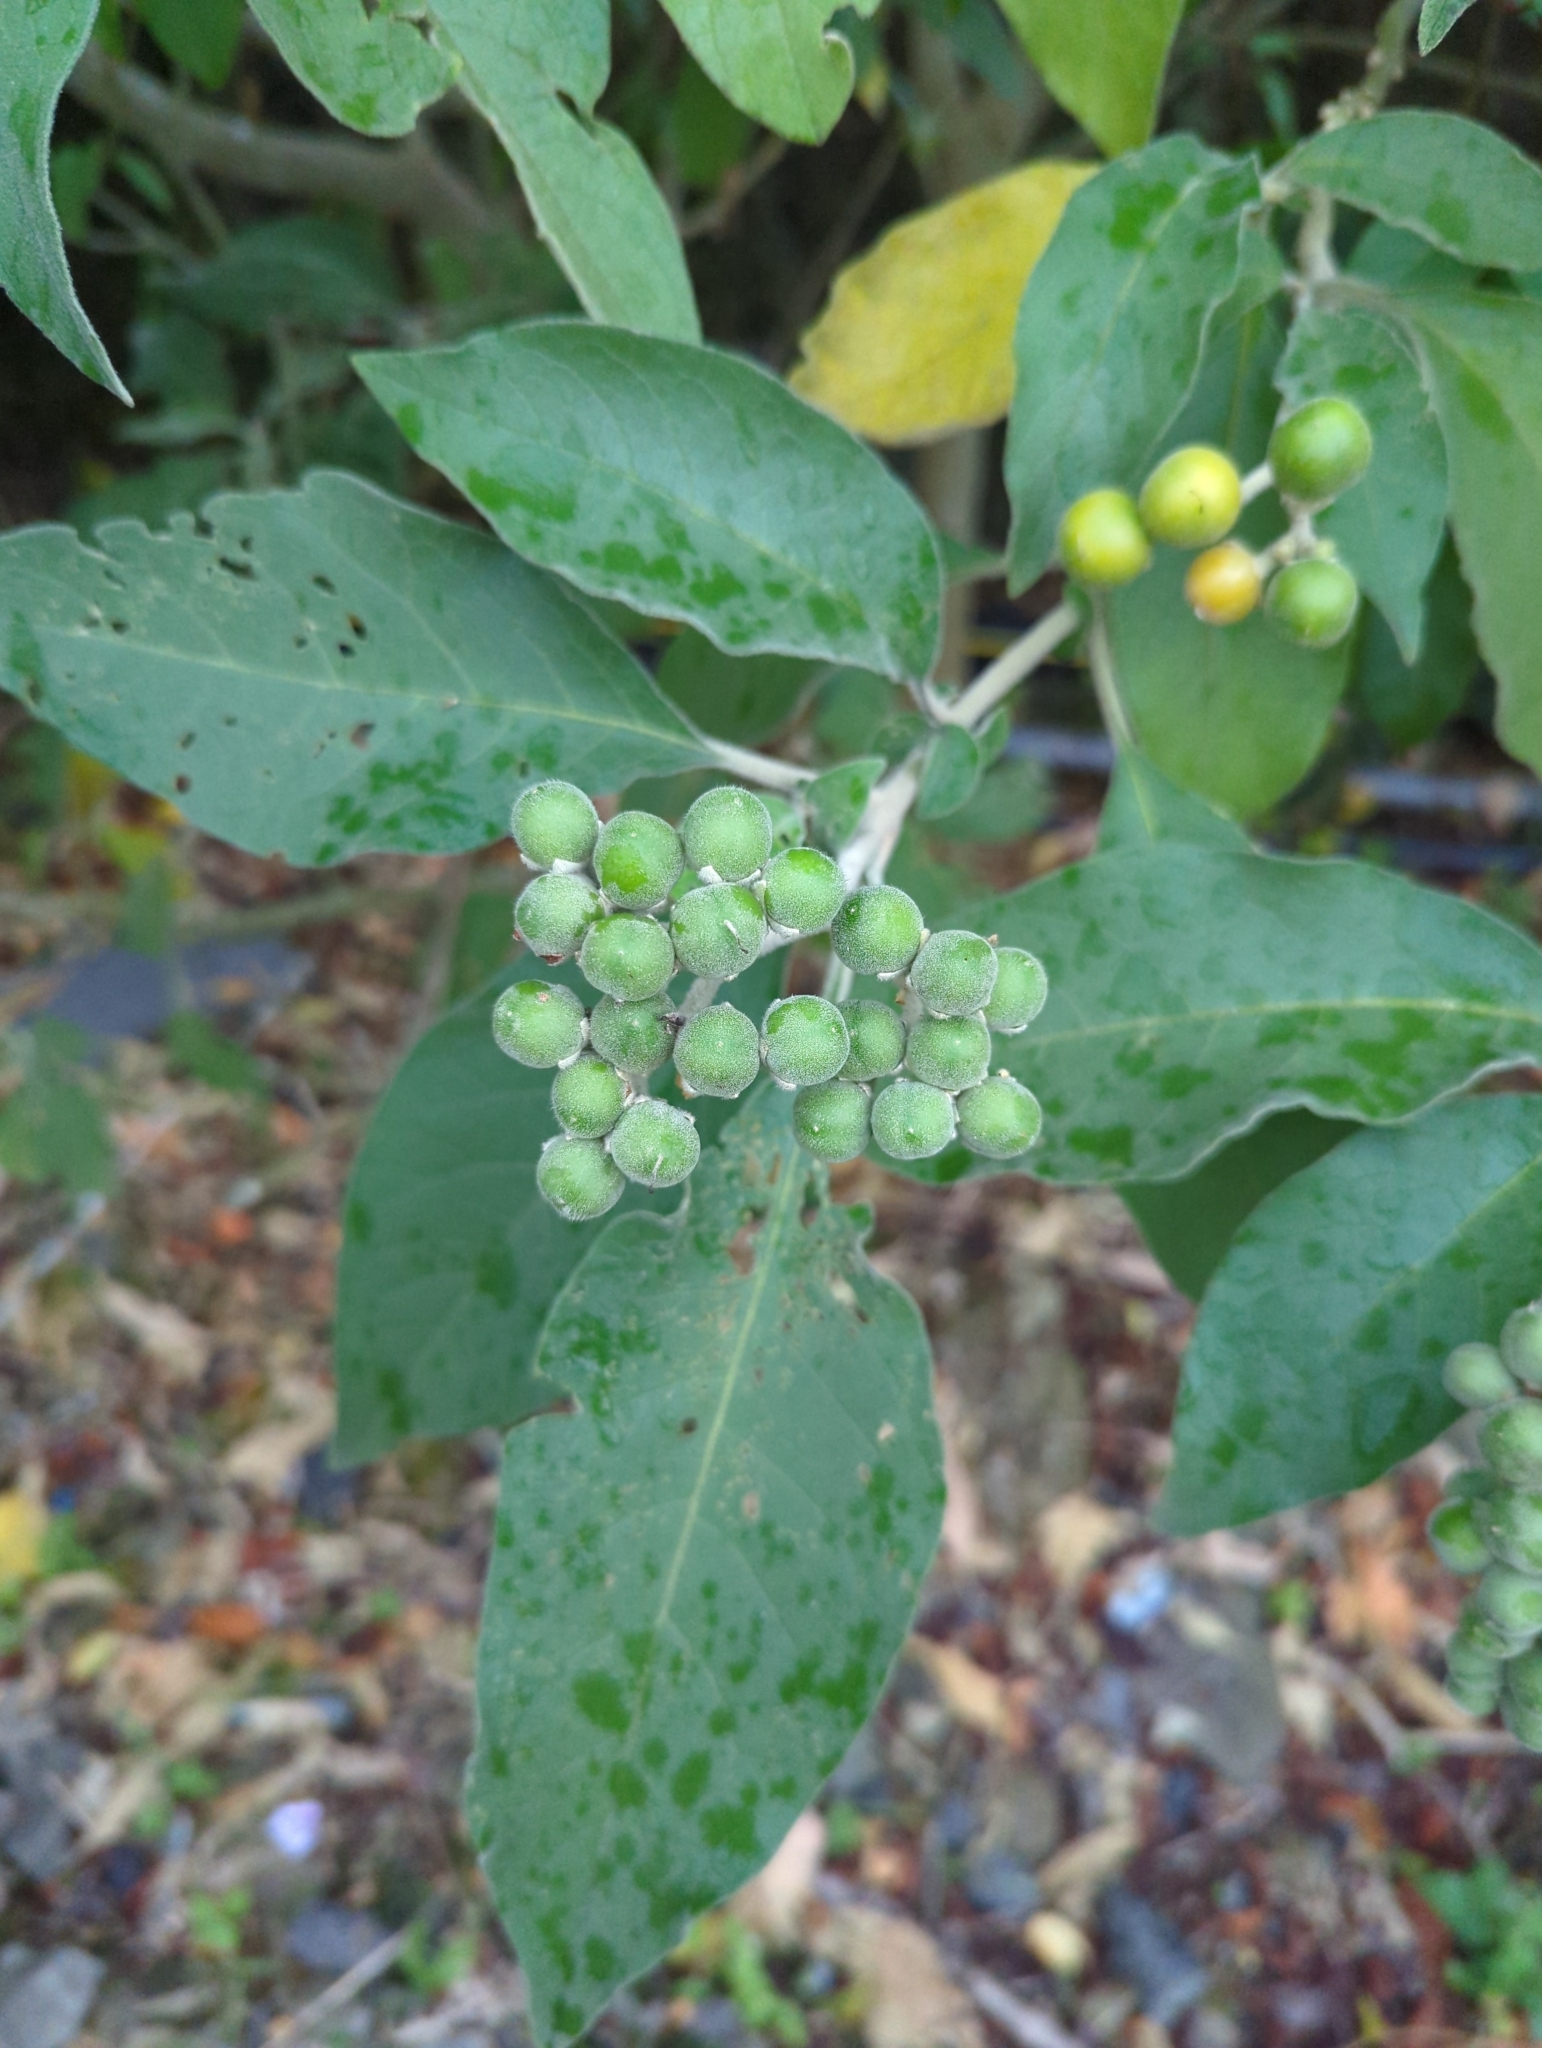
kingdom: Plantae
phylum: Tracheophyta
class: Magnoliopsida
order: Solanales
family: Solanaceae
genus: Solanum
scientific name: Solanum erianthum
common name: Tobacco-tree
